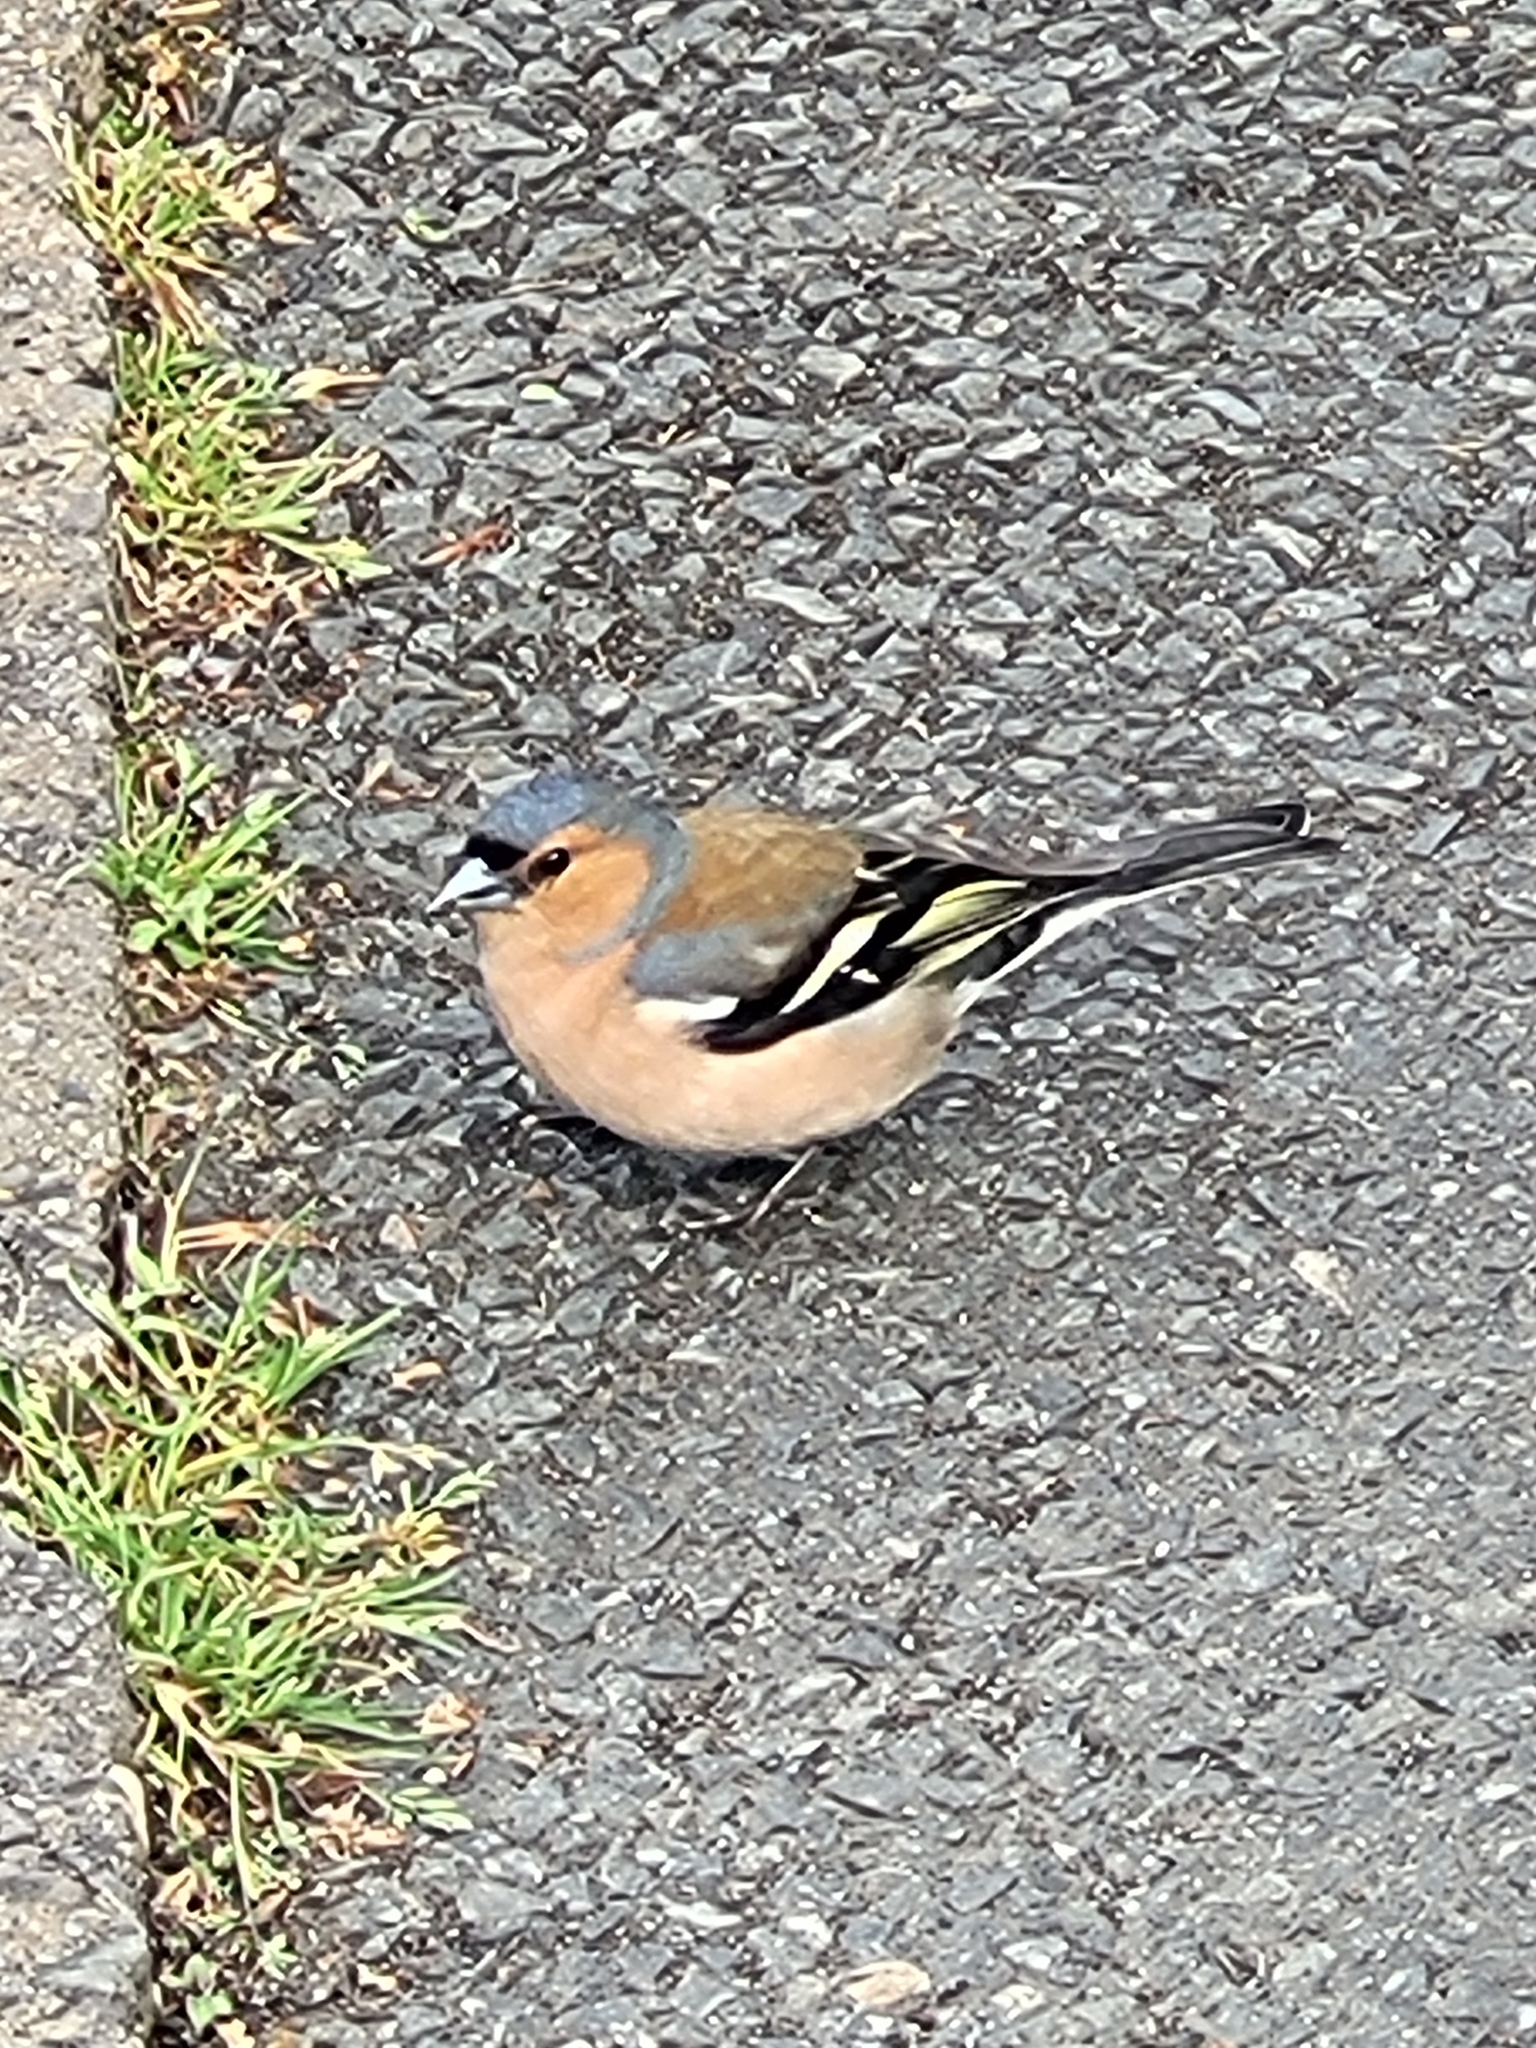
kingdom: Animalia
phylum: Chordata
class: Aves
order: Passeriformes
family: Fringillidae
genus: Fringilla
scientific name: Fringilla coelebs
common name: Common chaffinch
